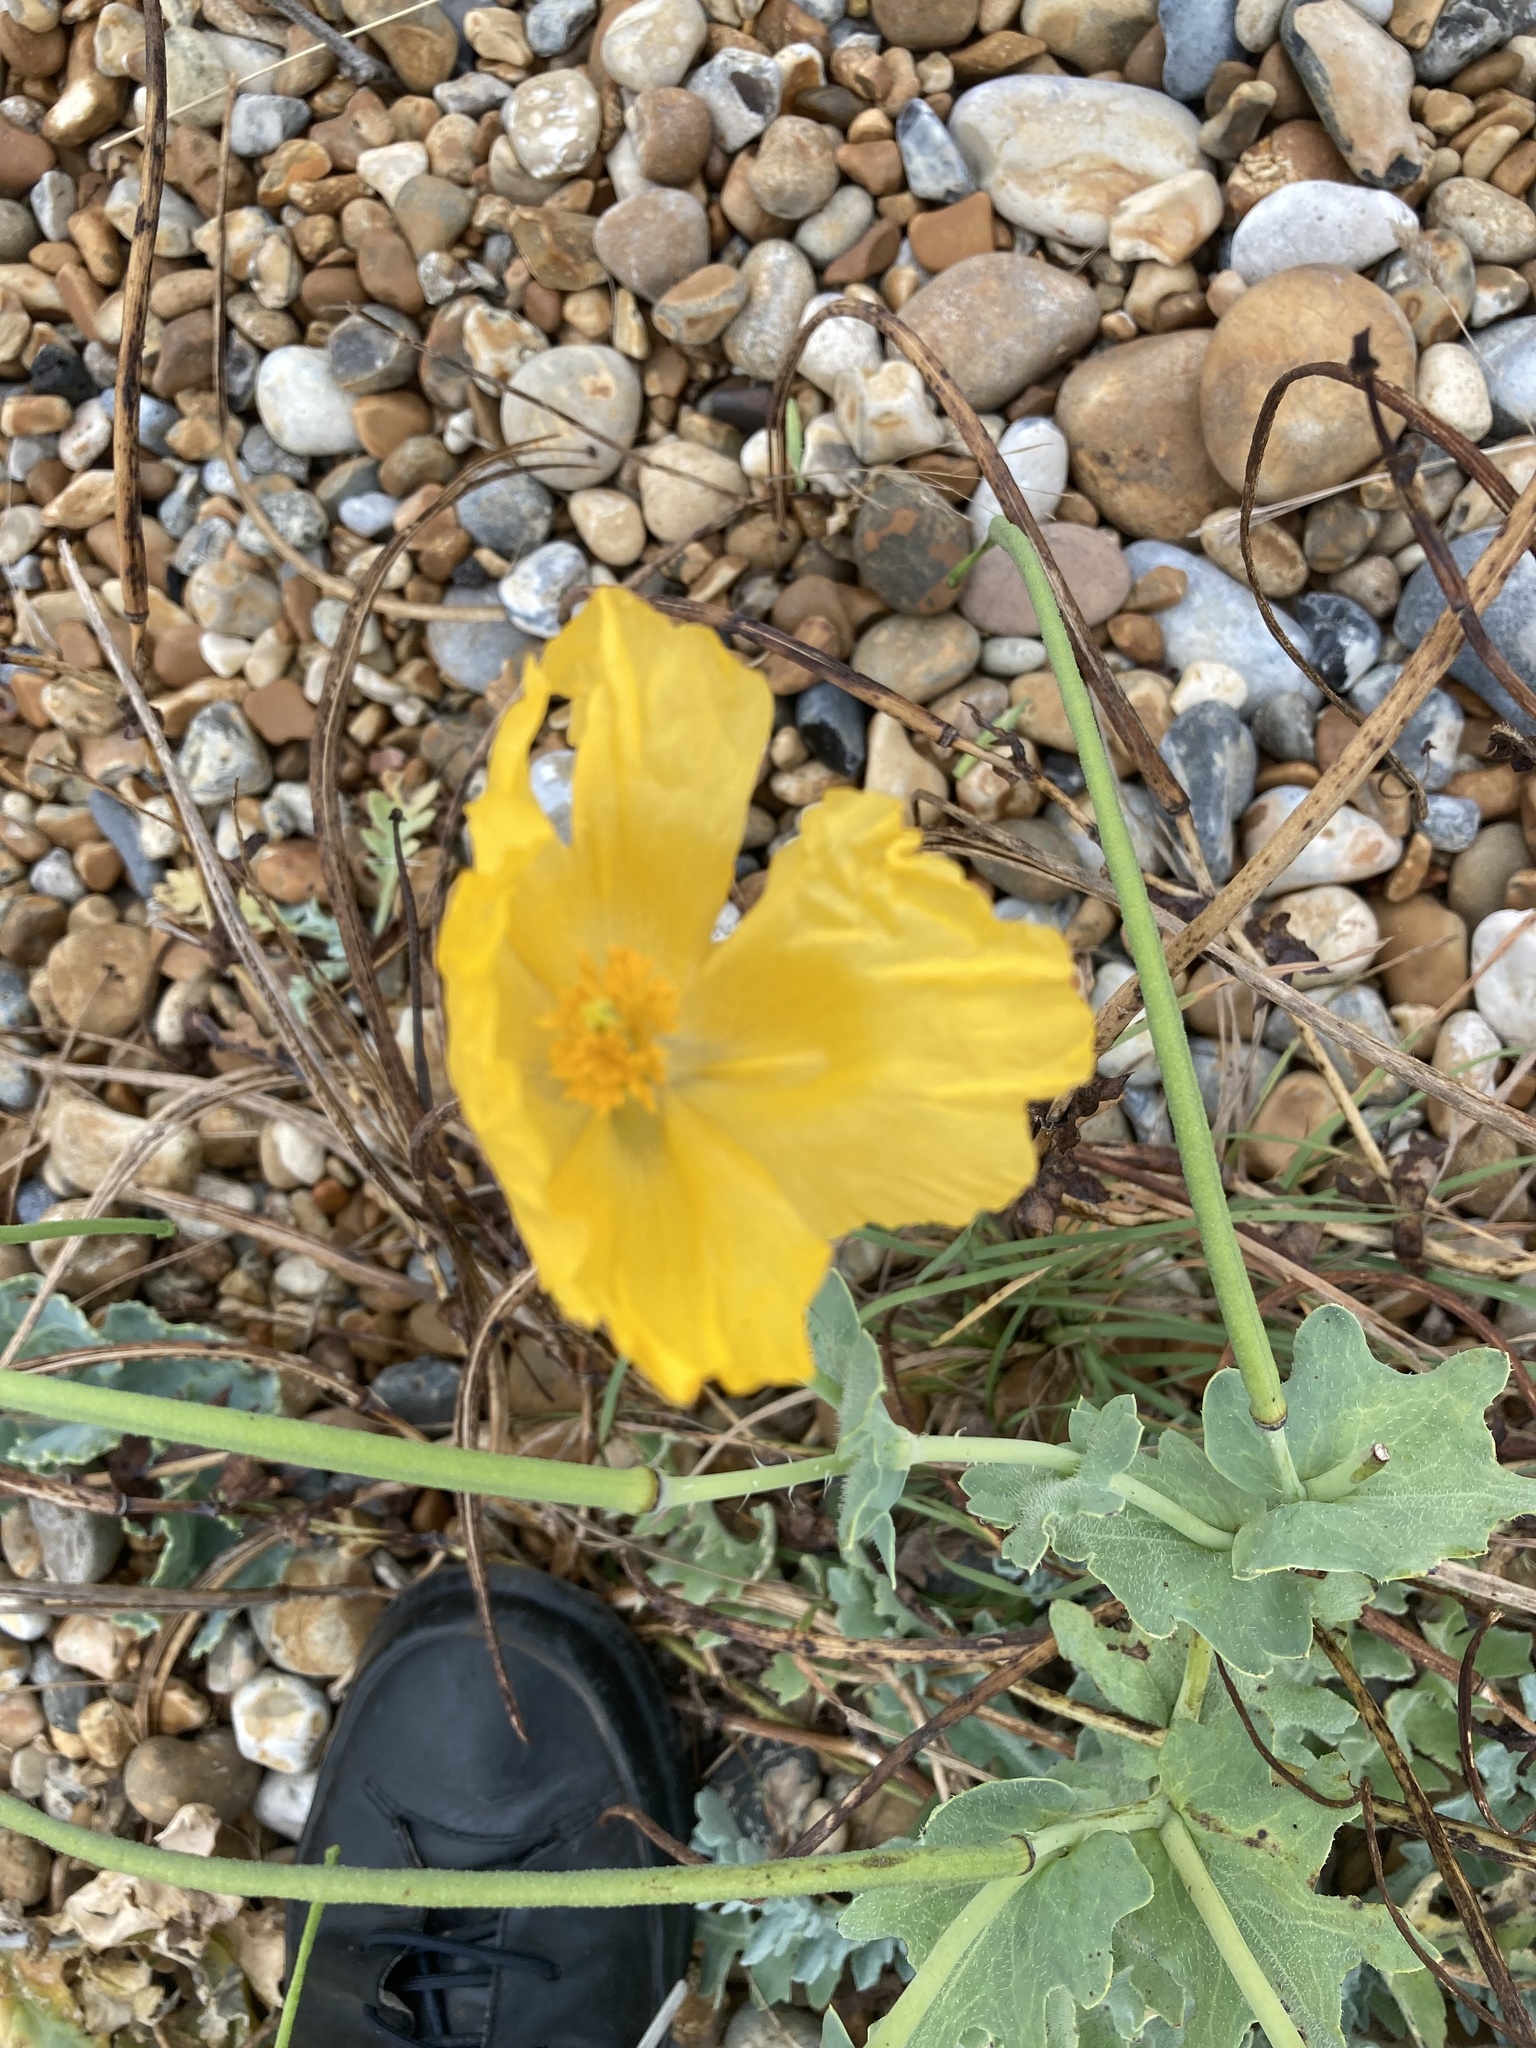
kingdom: Plantae
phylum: Tracheophyta
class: Magnoliopsida
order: Ranunculales
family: Papaveraceae
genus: Glaucium
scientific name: Glaucium flavum
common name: Yellow horned-poppy
